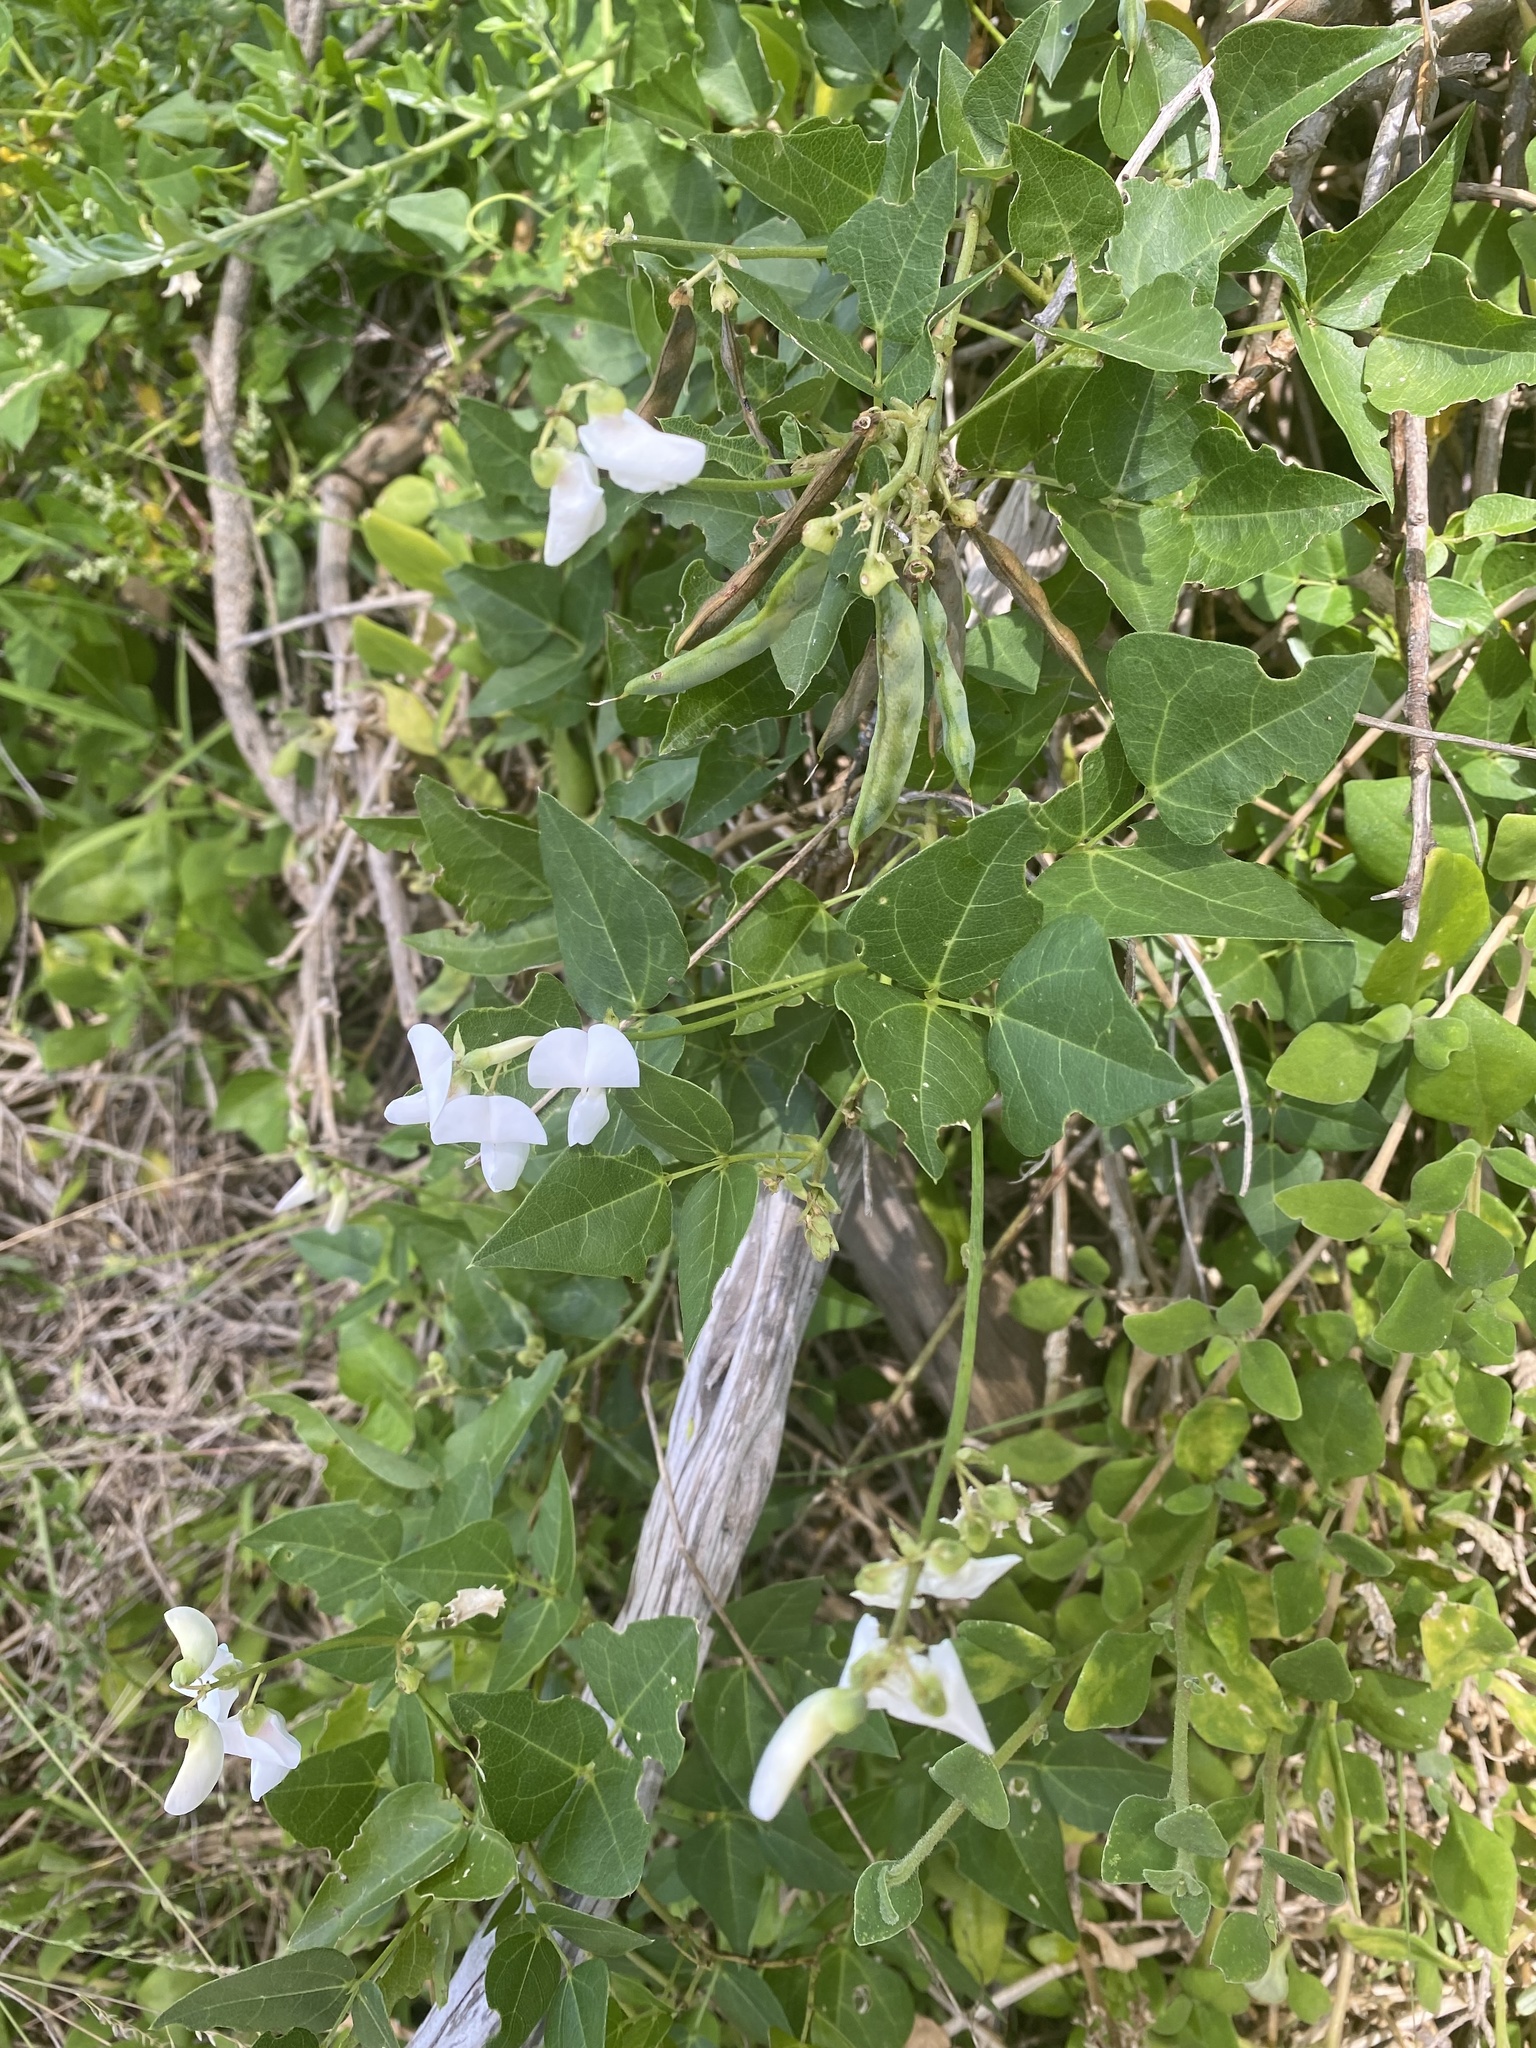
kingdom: Plantae
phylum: Tracheophyta
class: Magnoliopsida
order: Fabales
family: Fabaceae
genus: Dipogon
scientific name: Dipogon lignosus
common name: Okie bean
